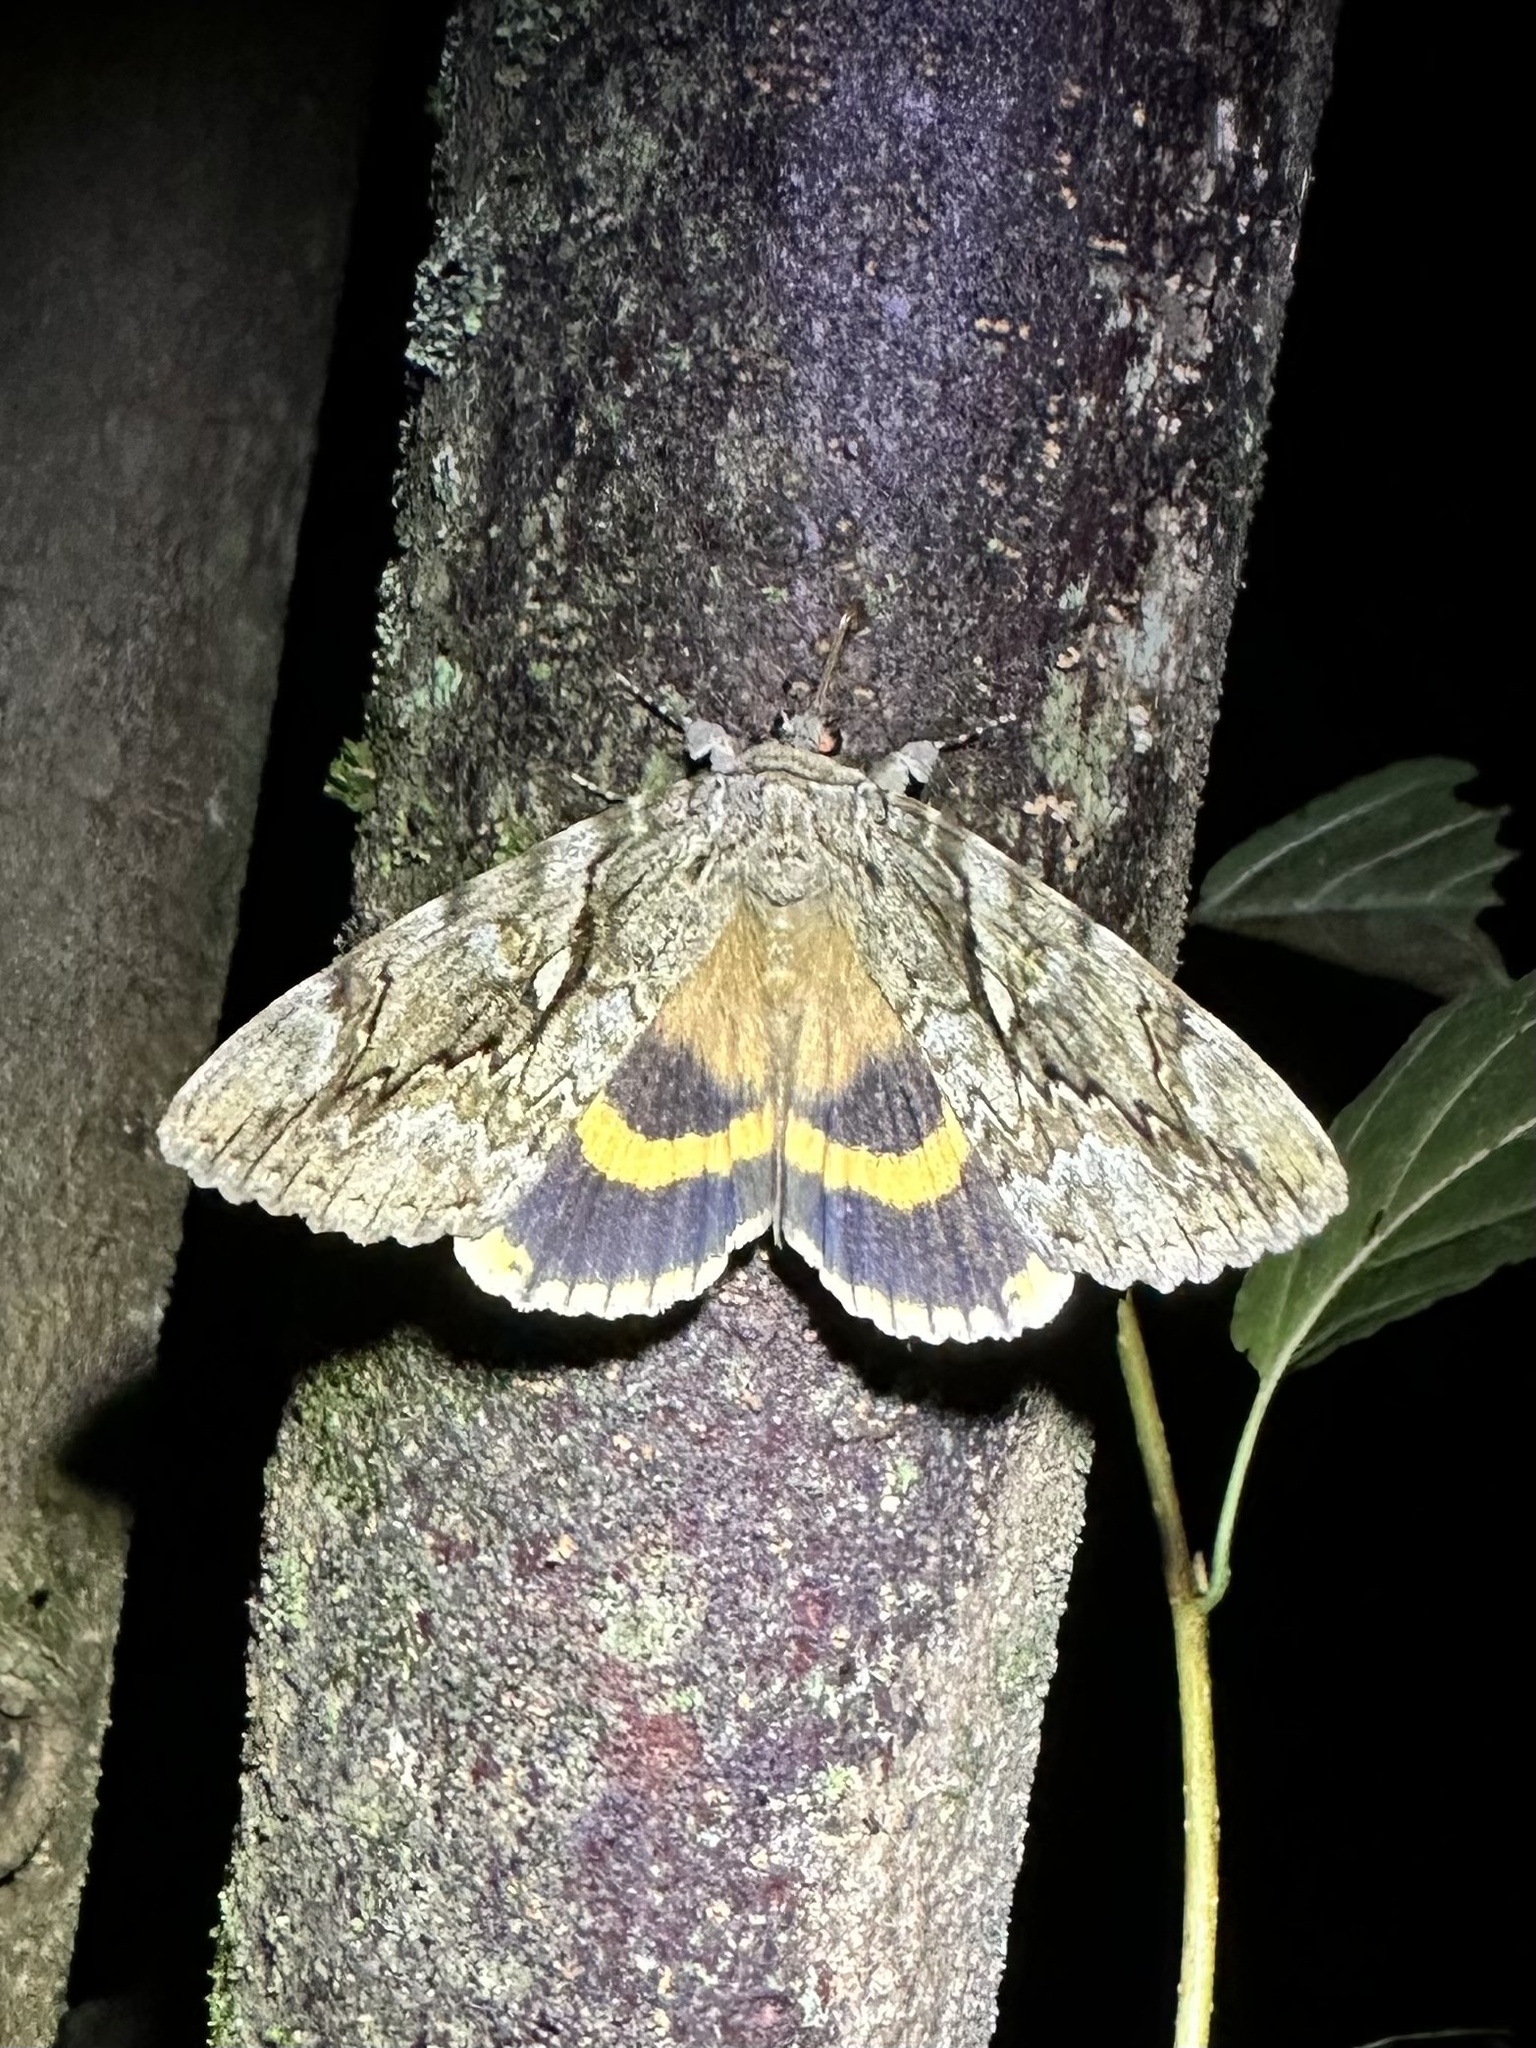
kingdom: Animalia
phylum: Arthropoda
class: Insecta
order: Lepidoptera
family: Erebidae
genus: Catocala
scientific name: Catocala cerogama
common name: Yellow banded underwing
